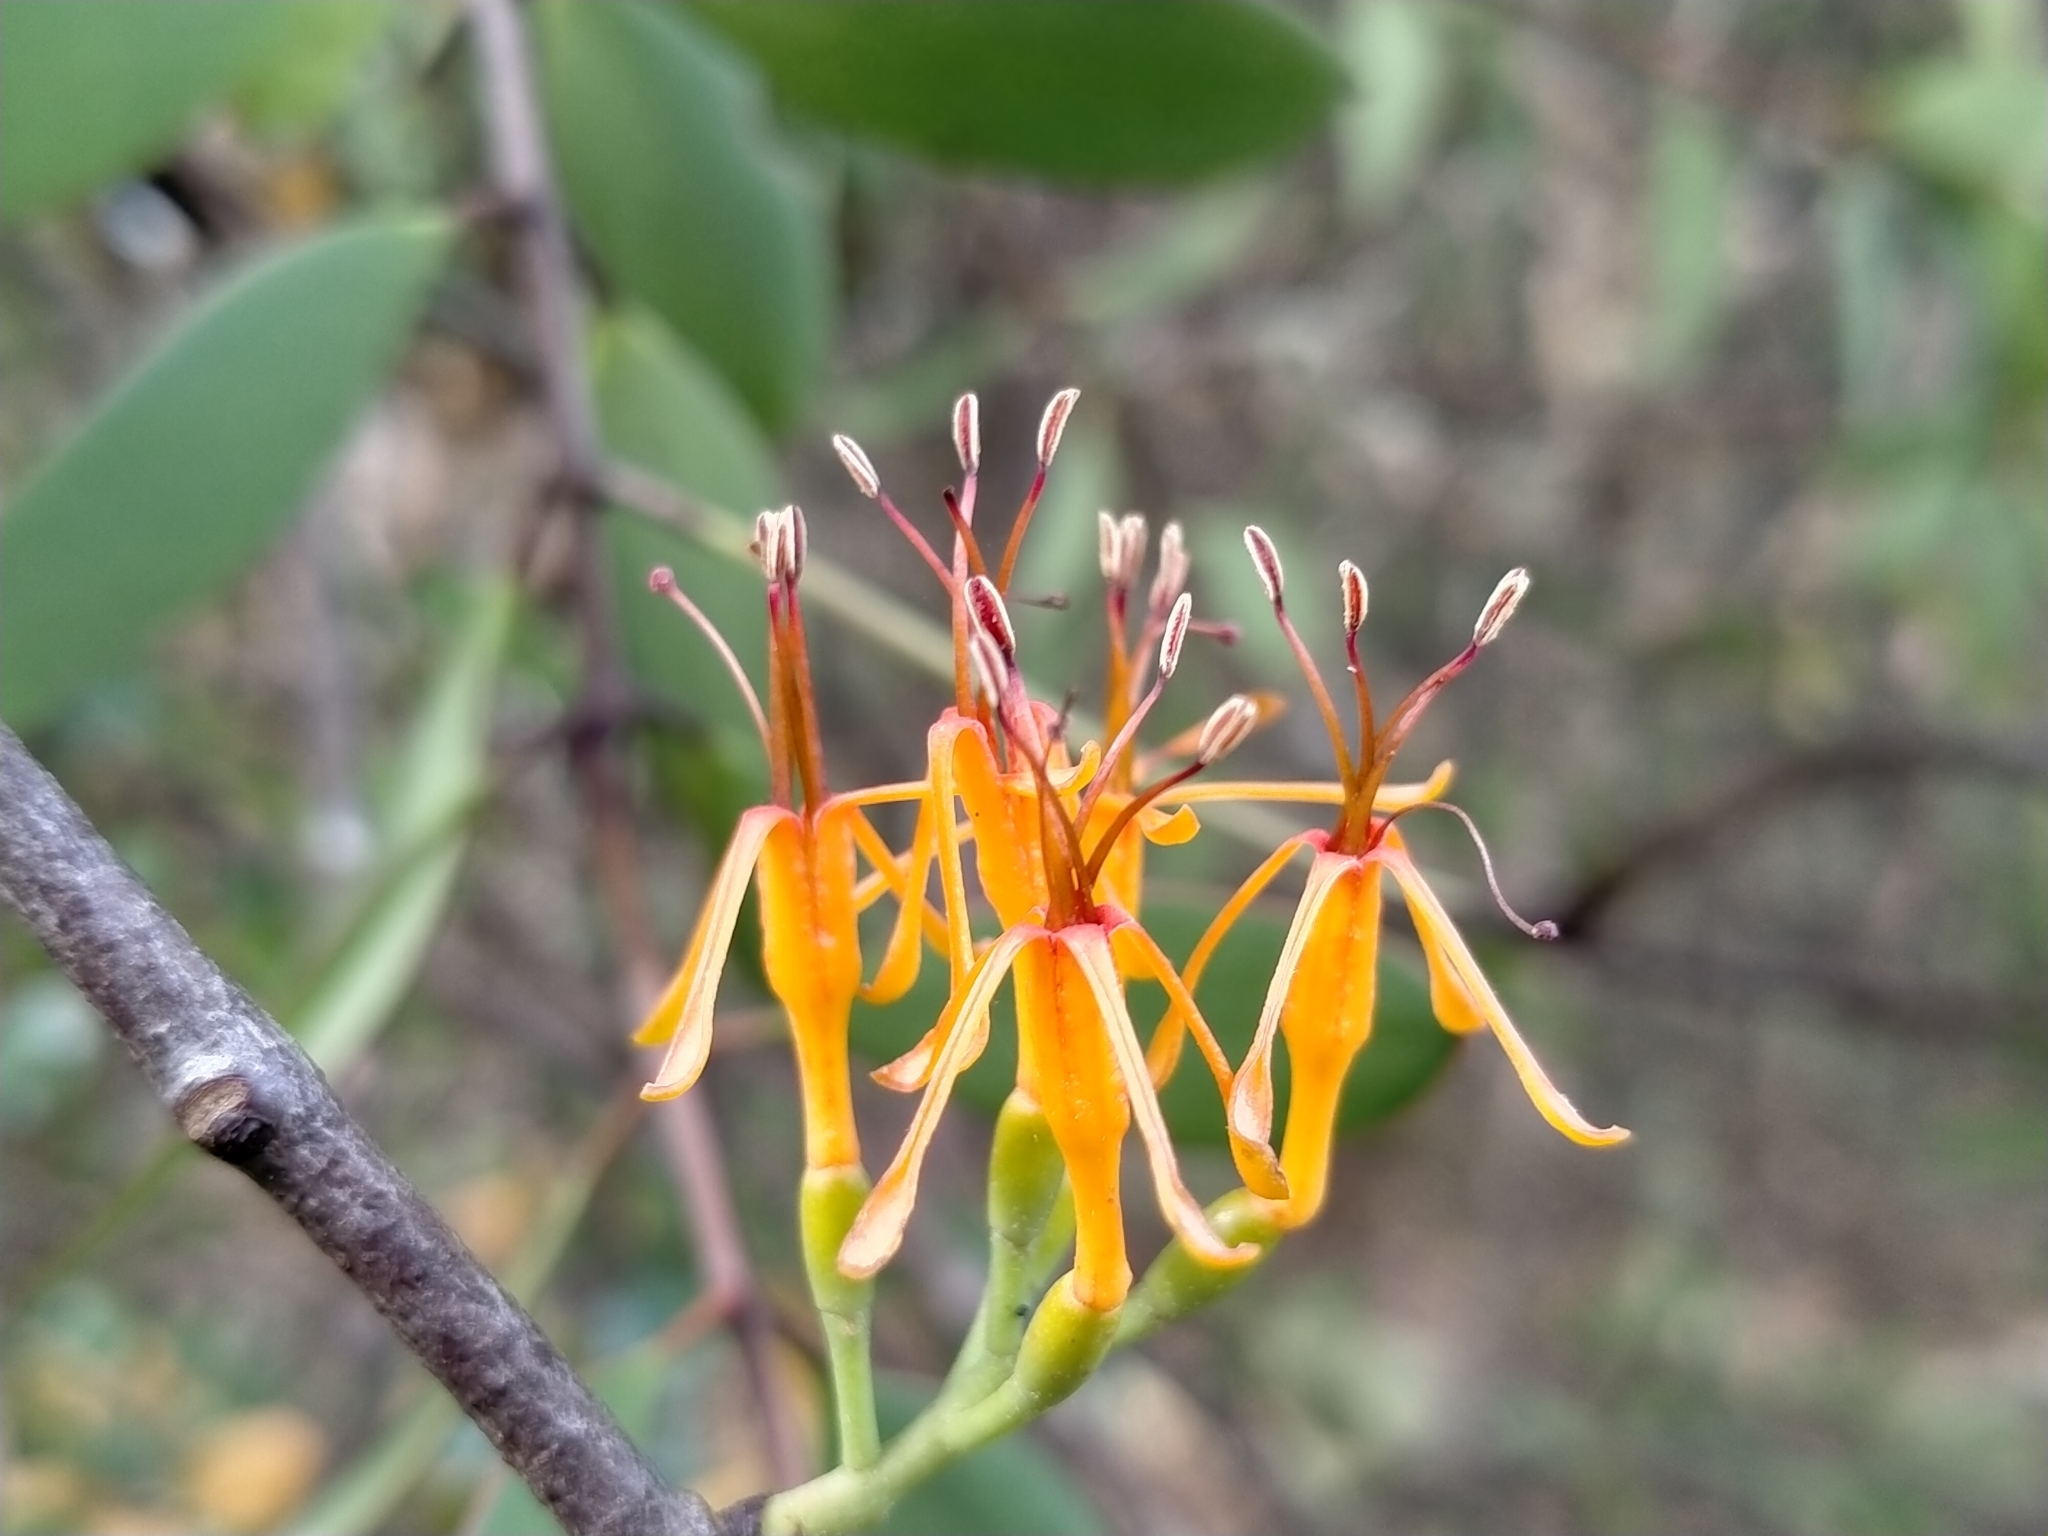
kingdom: Plantae
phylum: Tracheophyta
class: Magnoliopsida
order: Santalales
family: Loranthaceae
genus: Alepis
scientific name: Alepis flavida
